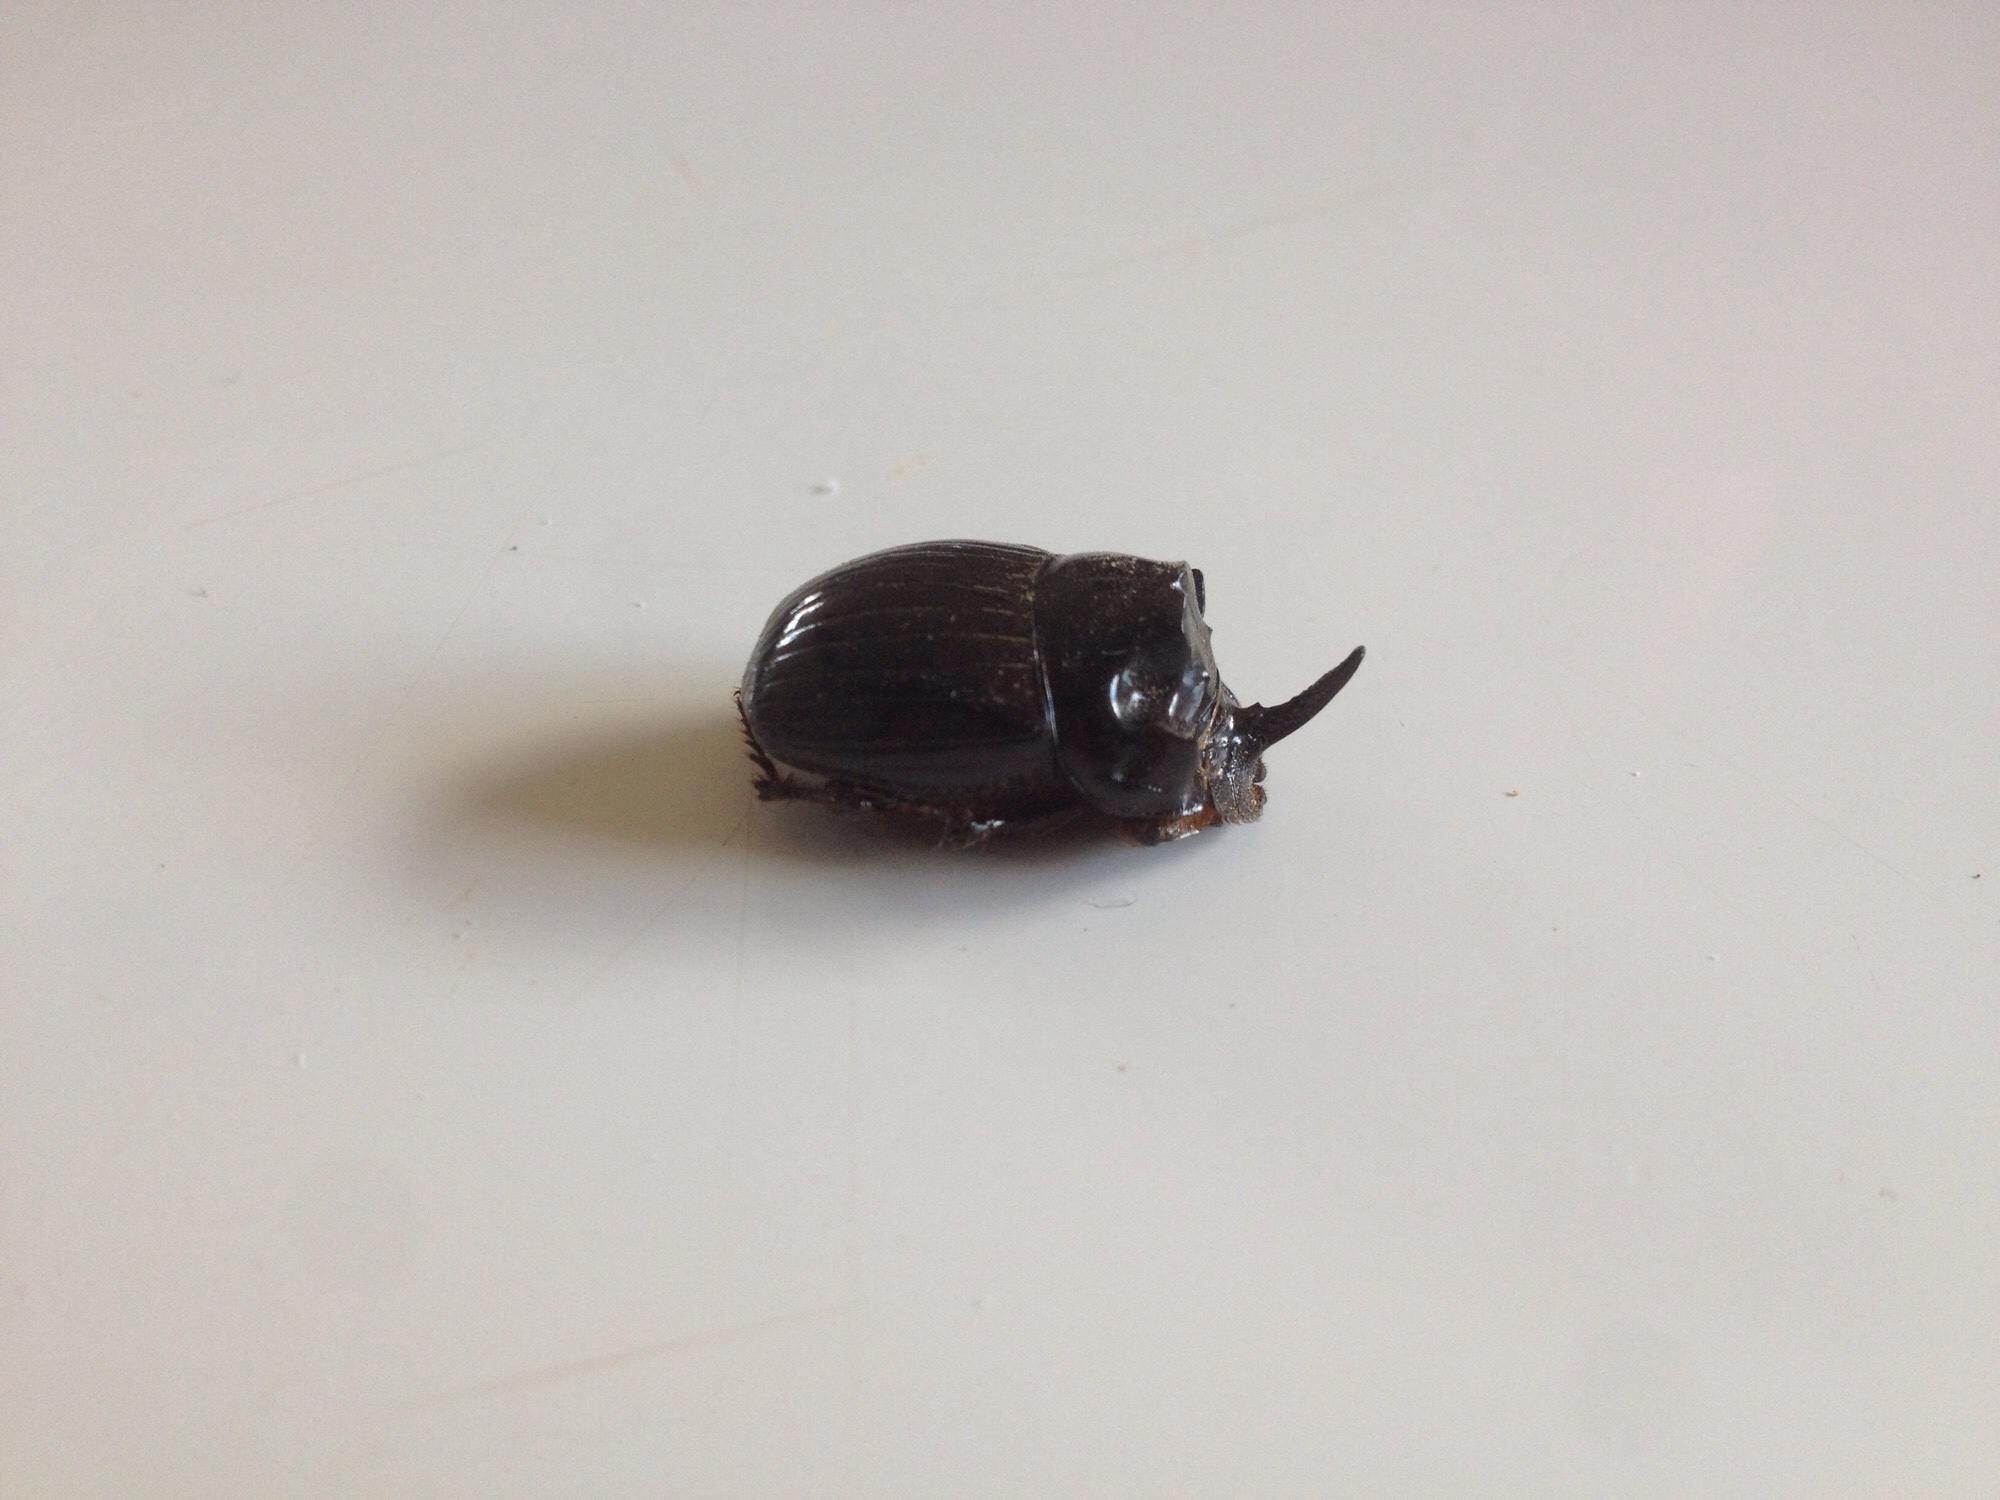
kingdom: Animalia
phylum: Arthropoda
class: Insecta
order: Coleoptera
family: Scarabaeidae
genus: Copris
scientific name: Copris lunaris
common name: Horned dung beetle
